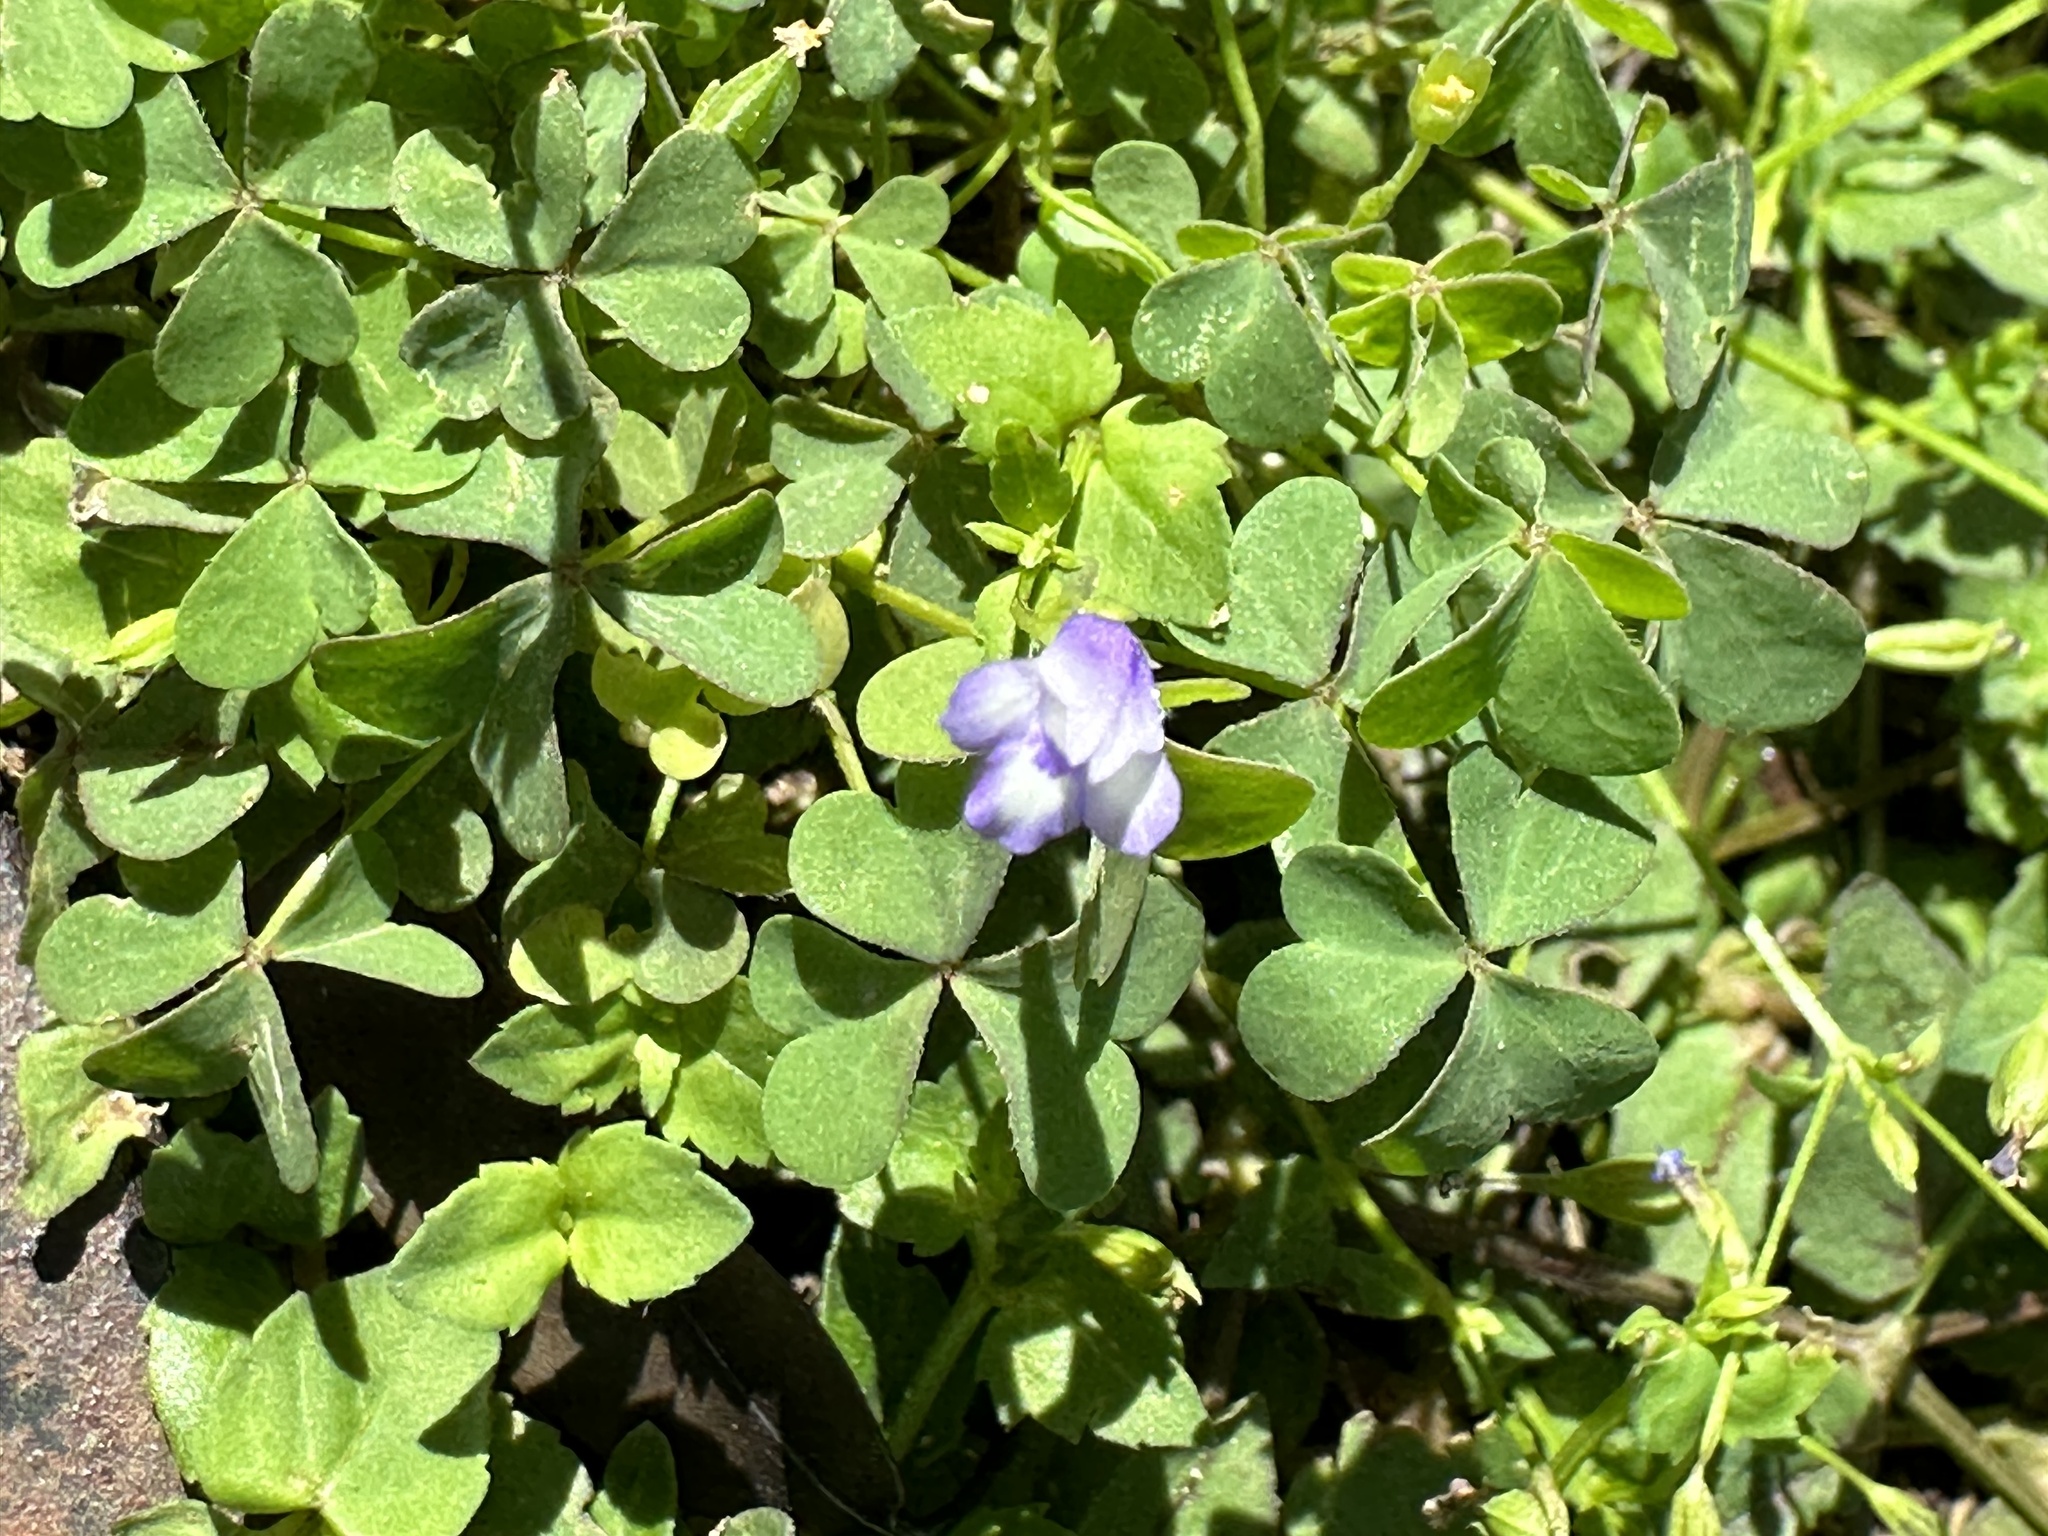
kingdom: Plantae
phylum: Tracheophyta
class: Magnoliopsida
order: Lamiales
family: Linderniaceae
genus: Torenia
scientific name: Torenia crustacea
